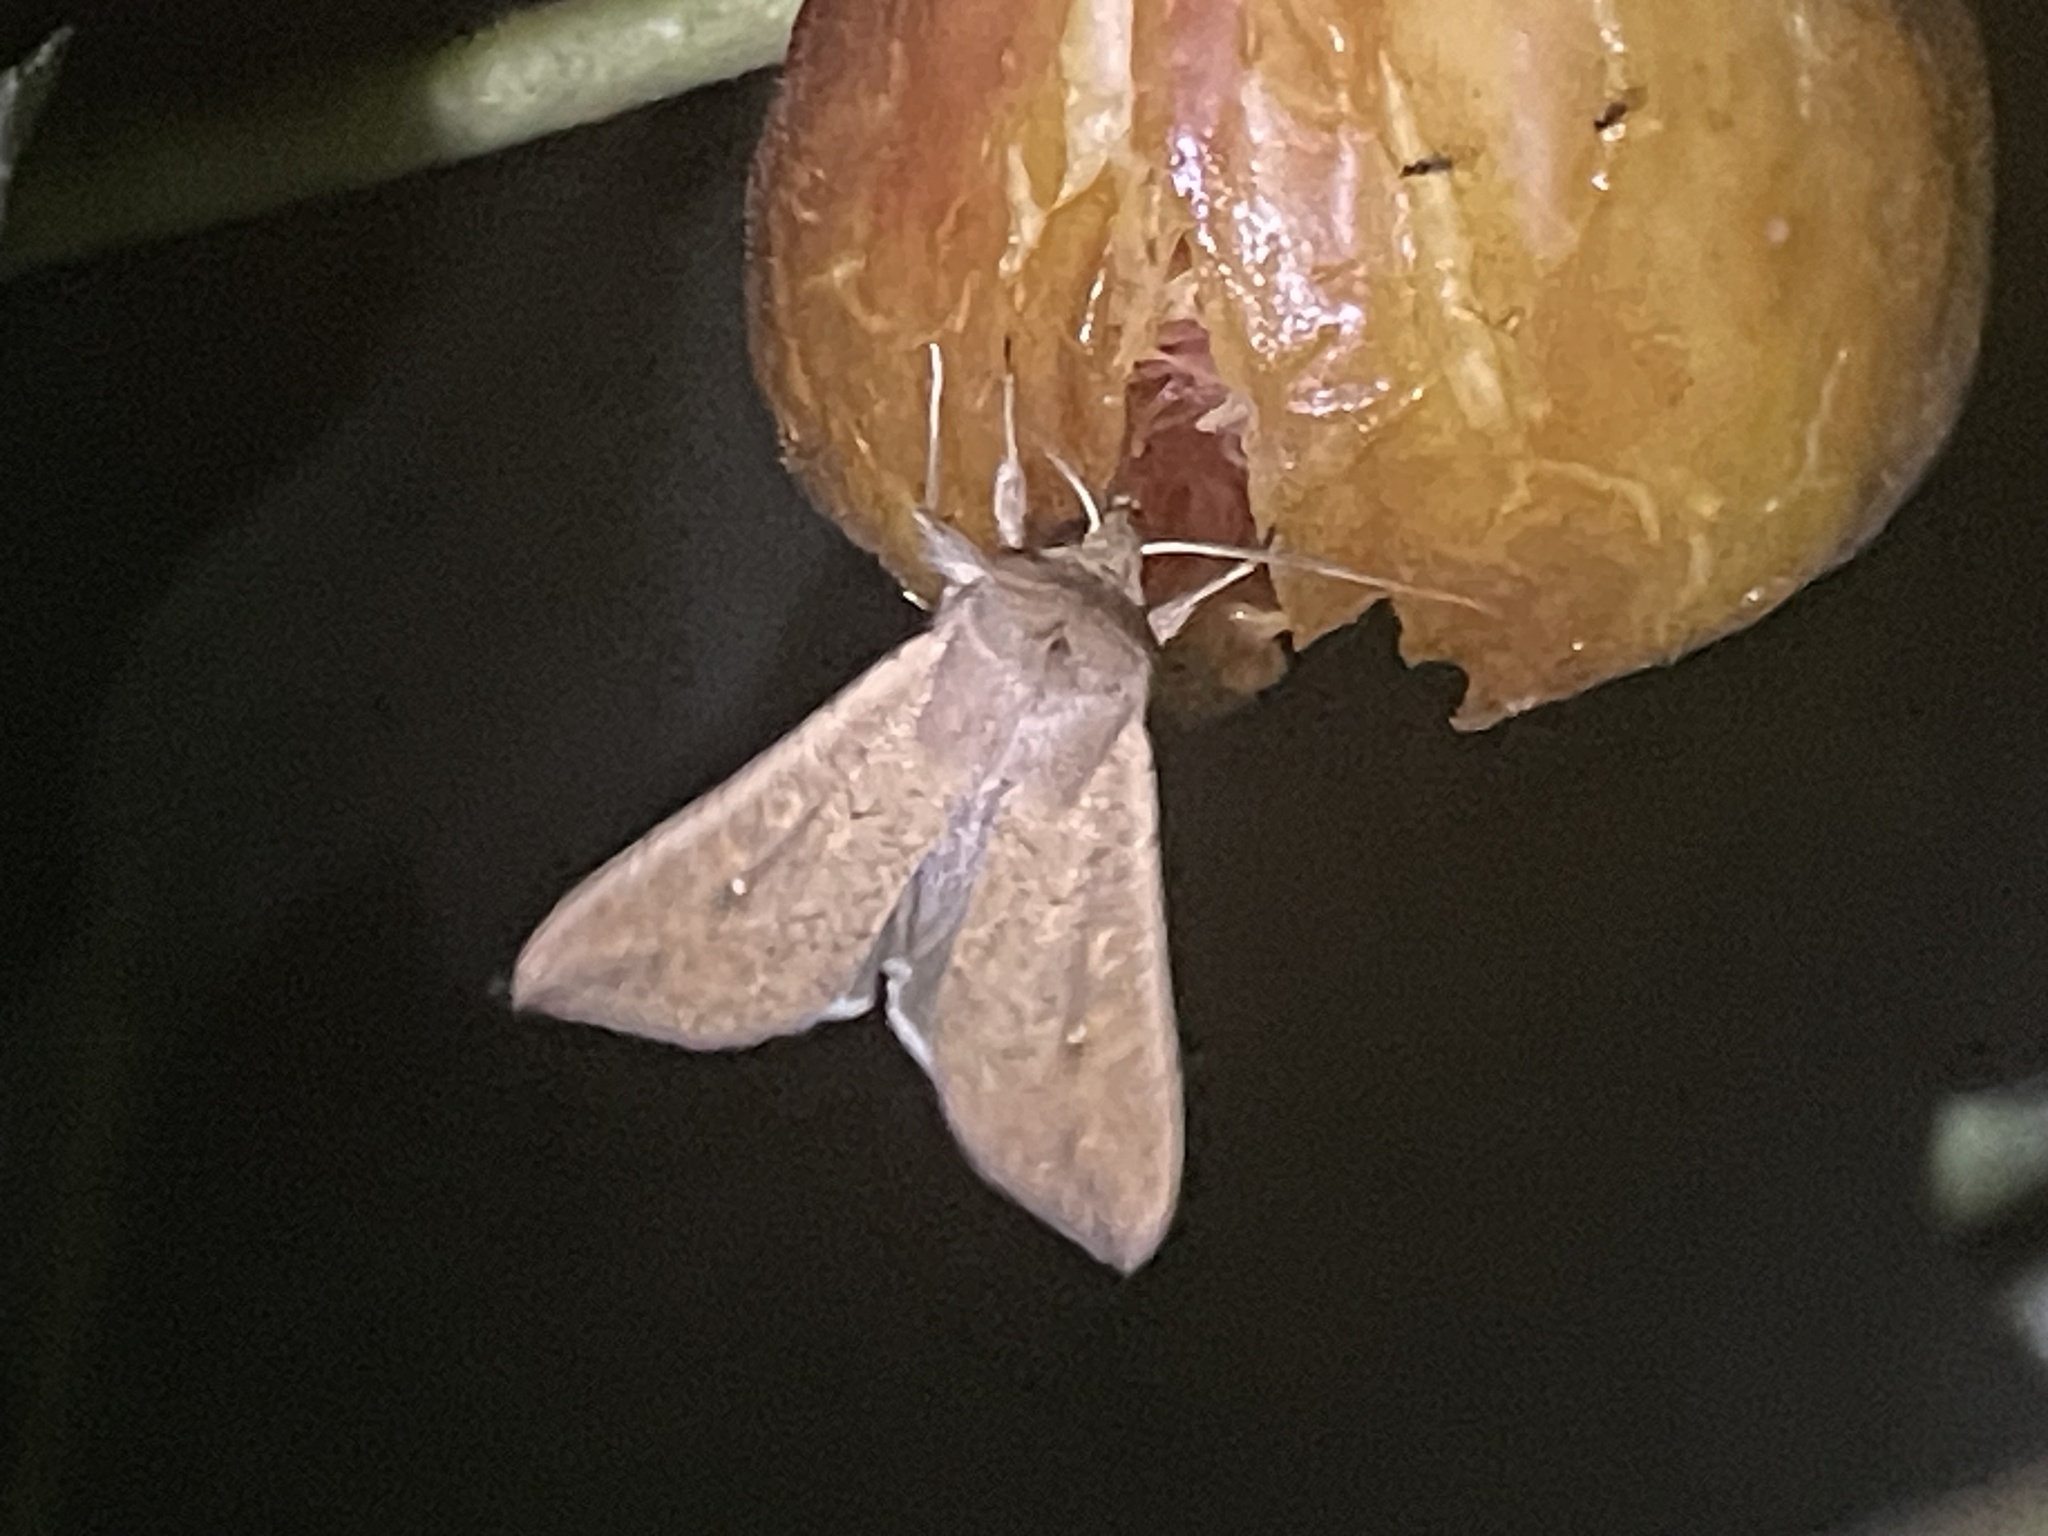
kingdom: Animalia
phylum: Arthropoda
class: Insecta
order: Lepidoptera
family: Noctuidae
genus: Mythimna
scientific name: Mythimna unipuncta
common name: White-speck
